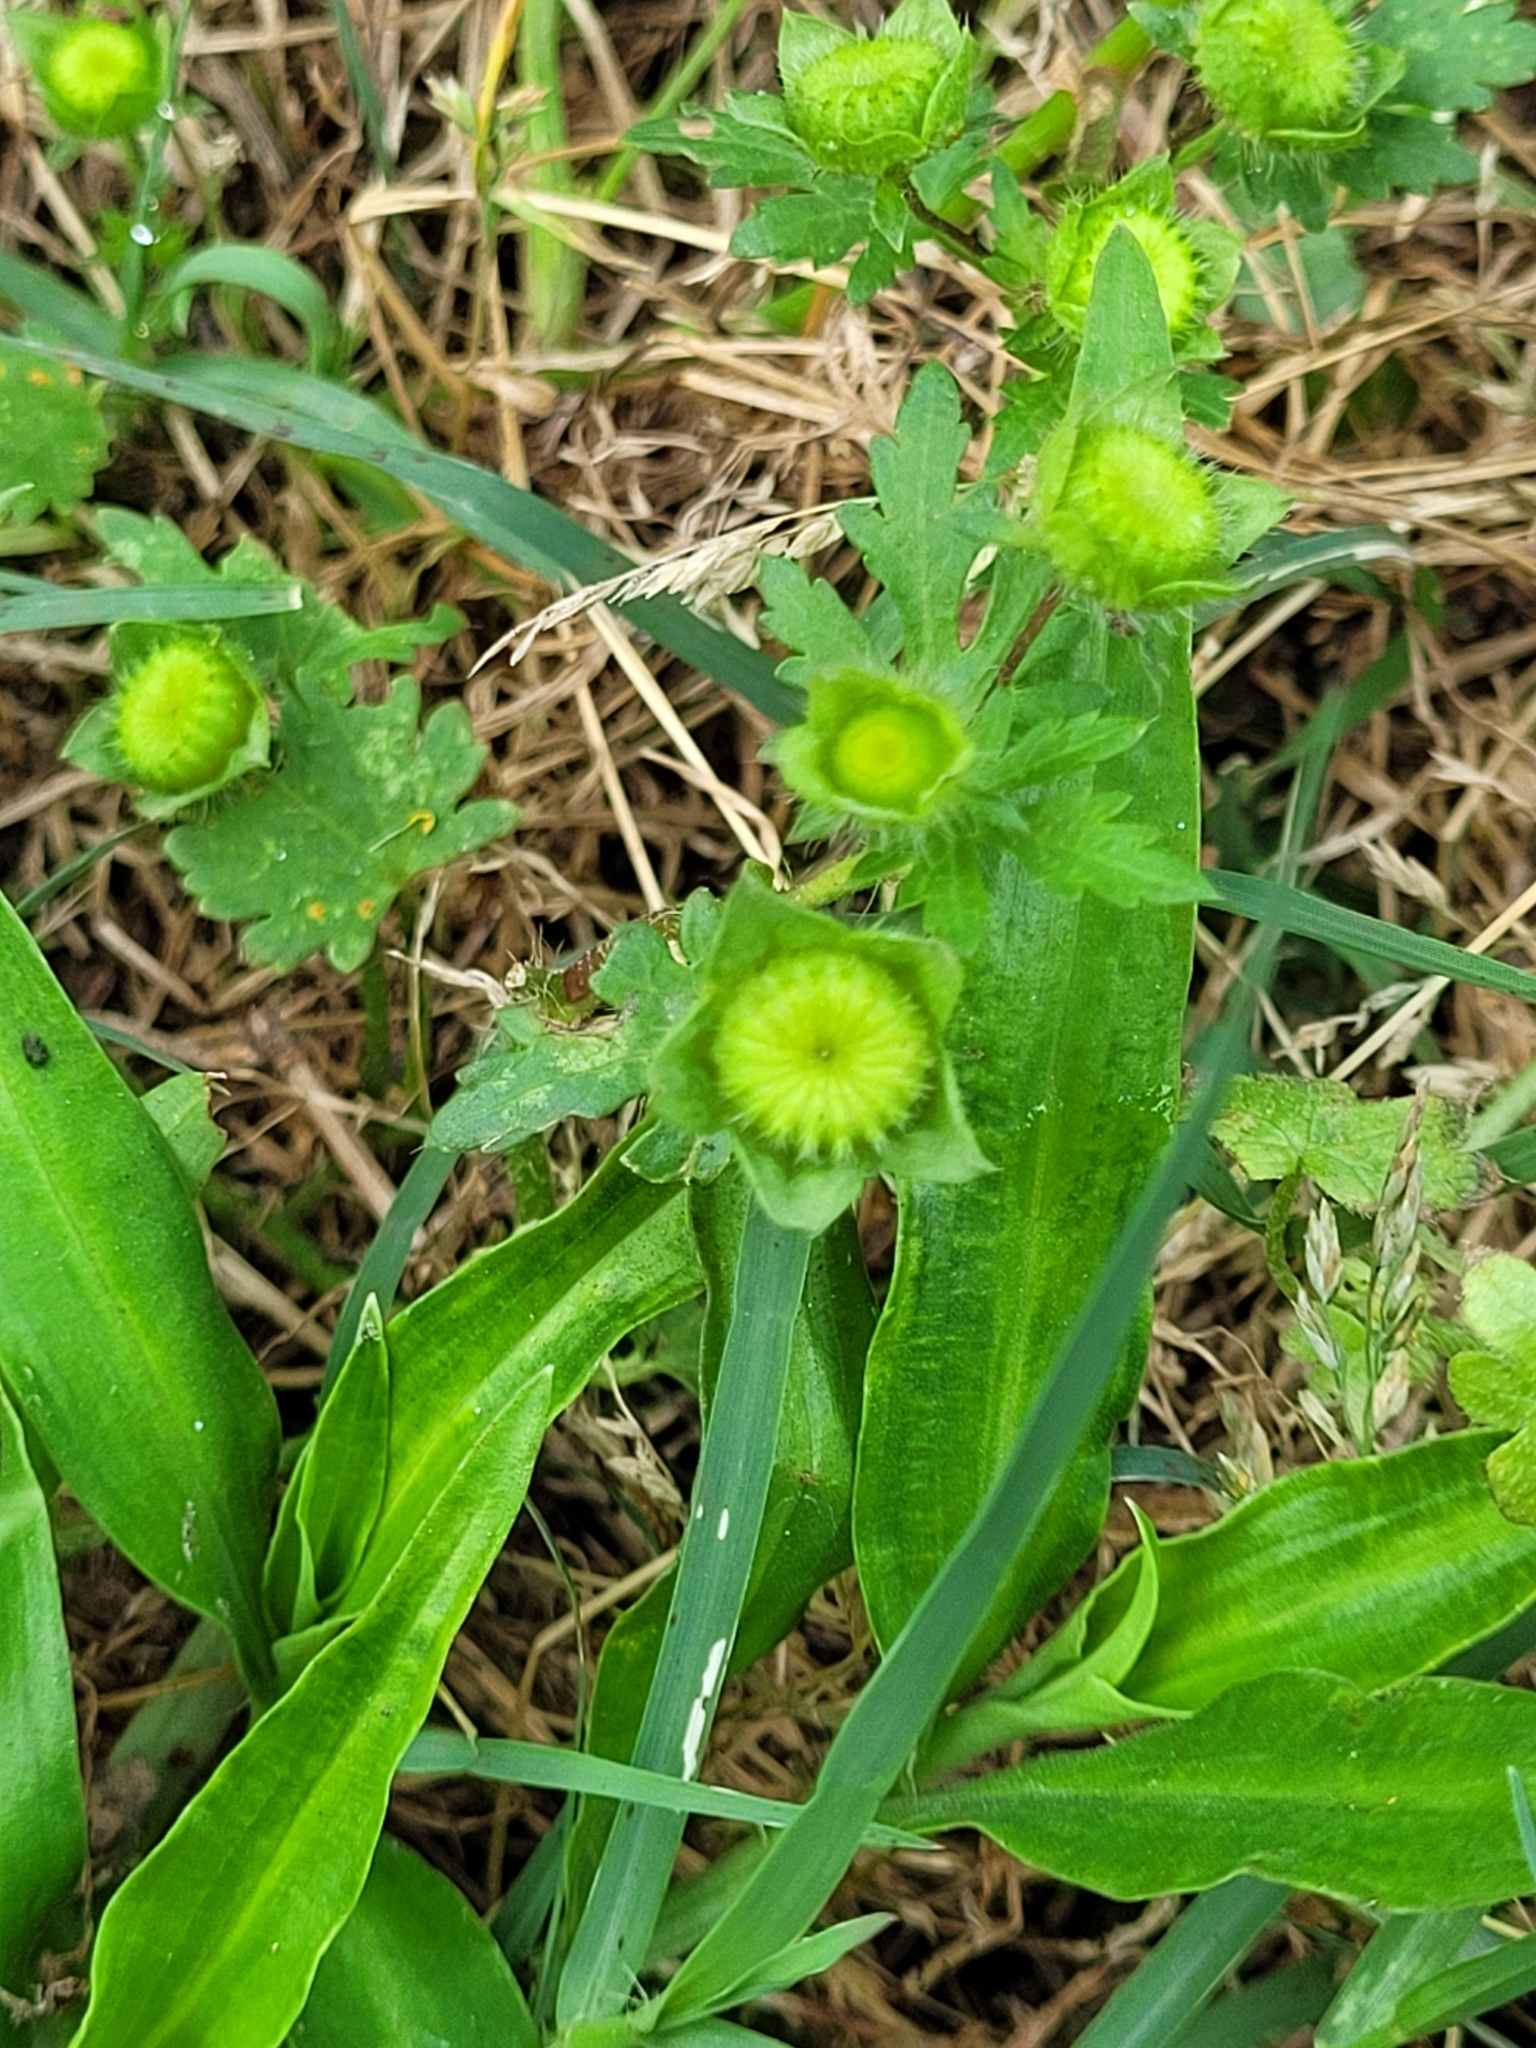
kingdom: Plantae
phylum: Tracheophyta
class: Magnoliopsida
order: Malvales
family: Malvaceae
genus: Modiola
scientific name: Modiola caroliniana
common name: Carolina bristlemallow
